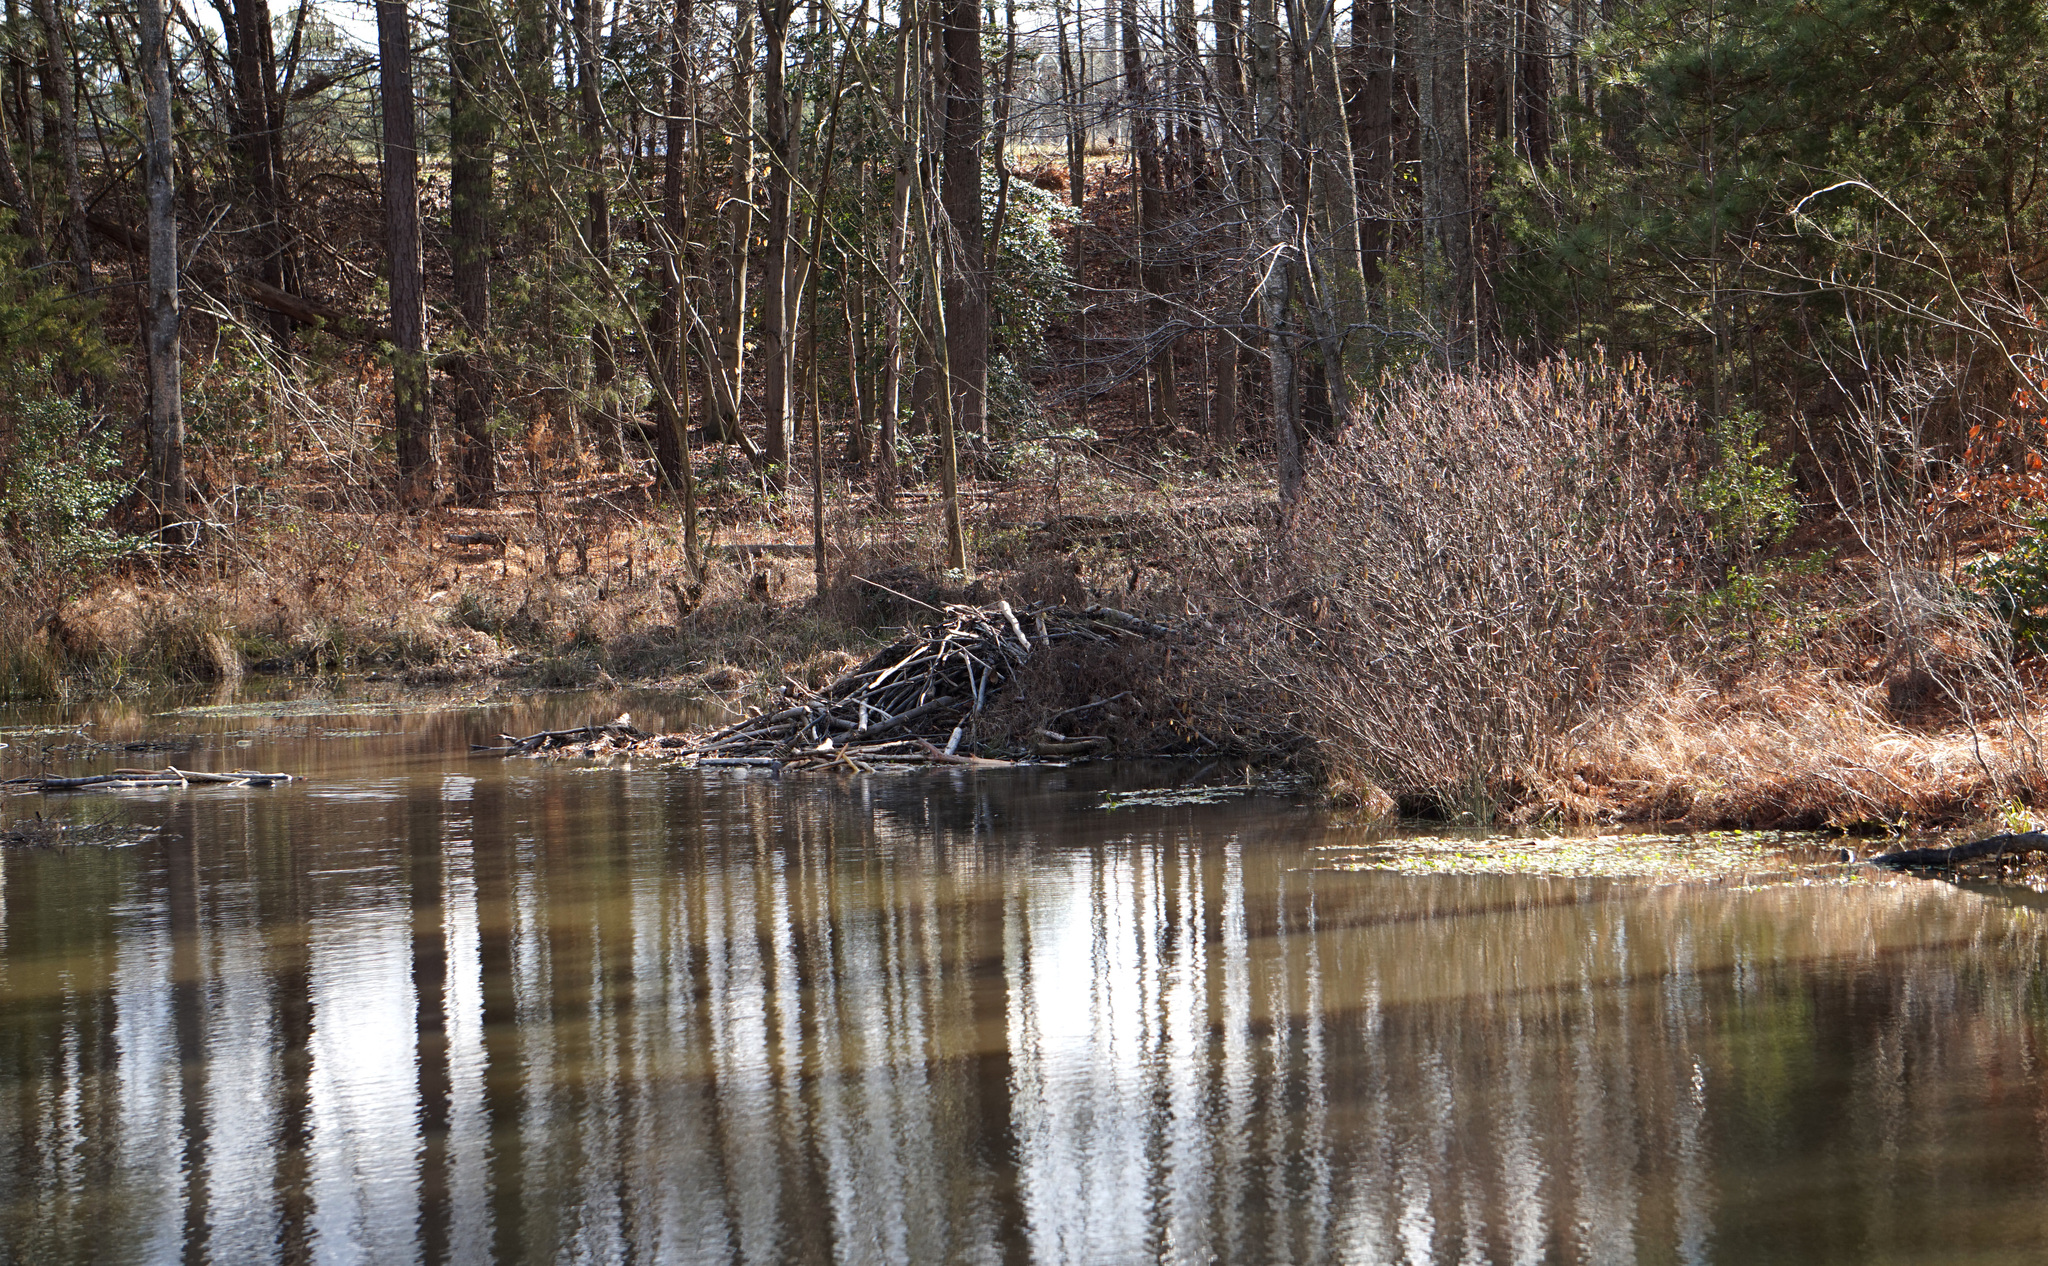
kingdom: Animalia
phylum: Chordata
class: Mammalia
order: Rodentia
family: Castoridae
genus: Castor
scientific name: Castor canadensis
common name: American beaver
